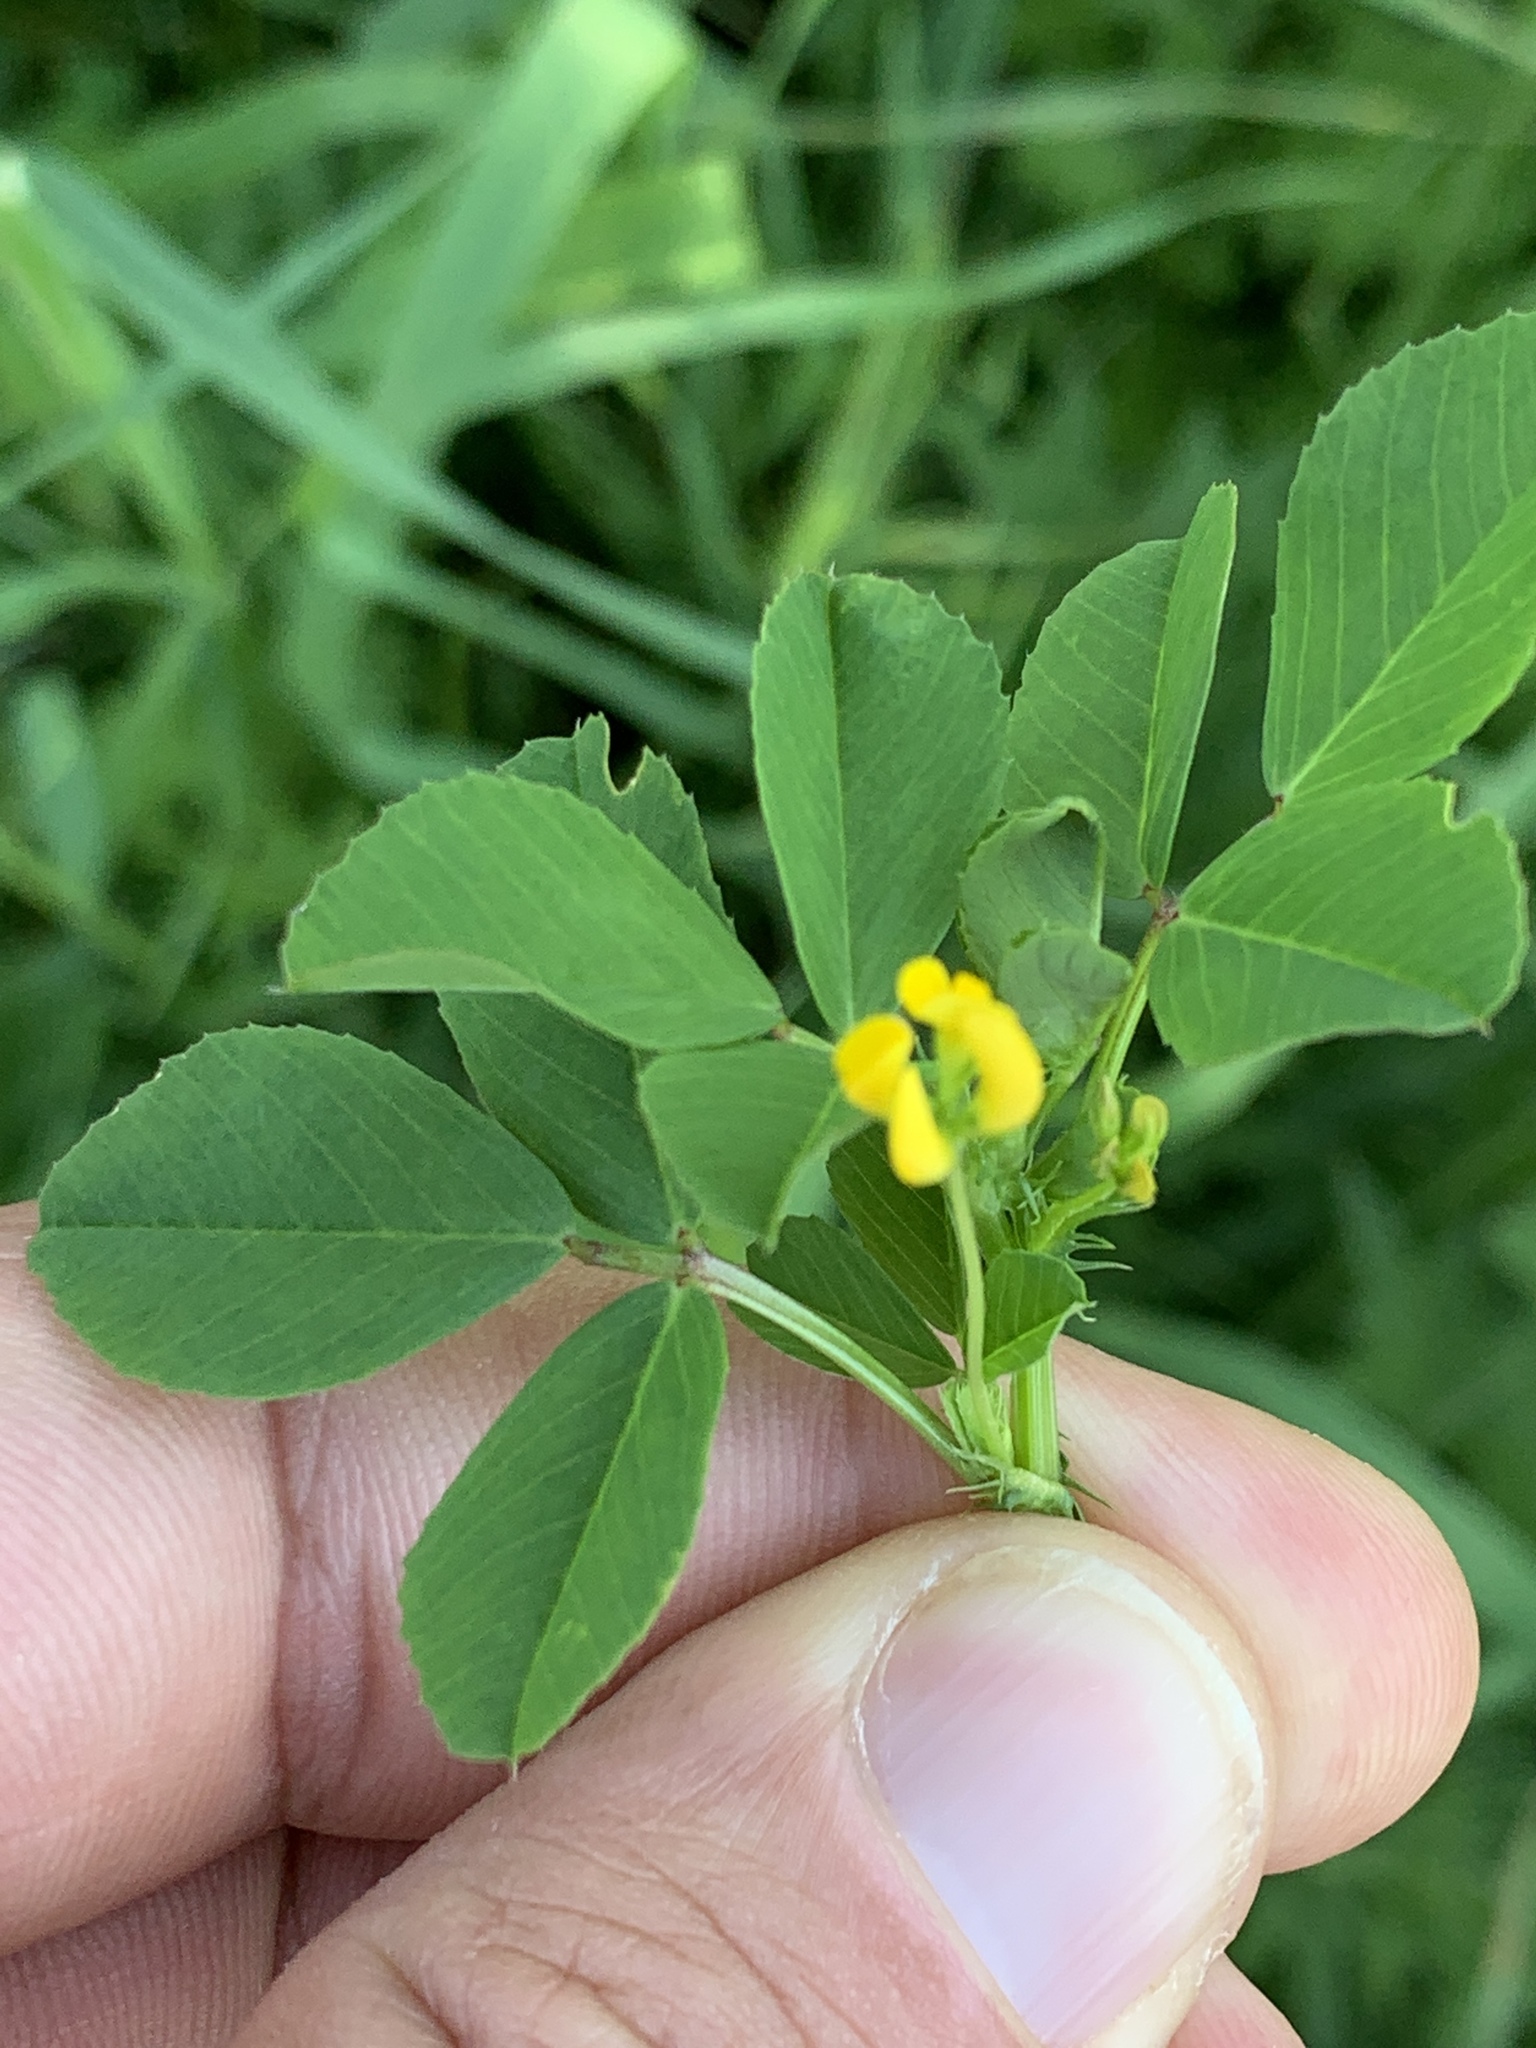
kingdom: Plantae
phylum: Tracheophyta
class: Magnoliopsida
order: Fabales
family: Fabaceae
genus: Medicago
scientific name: Medicago polymorpha
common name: Burclover
